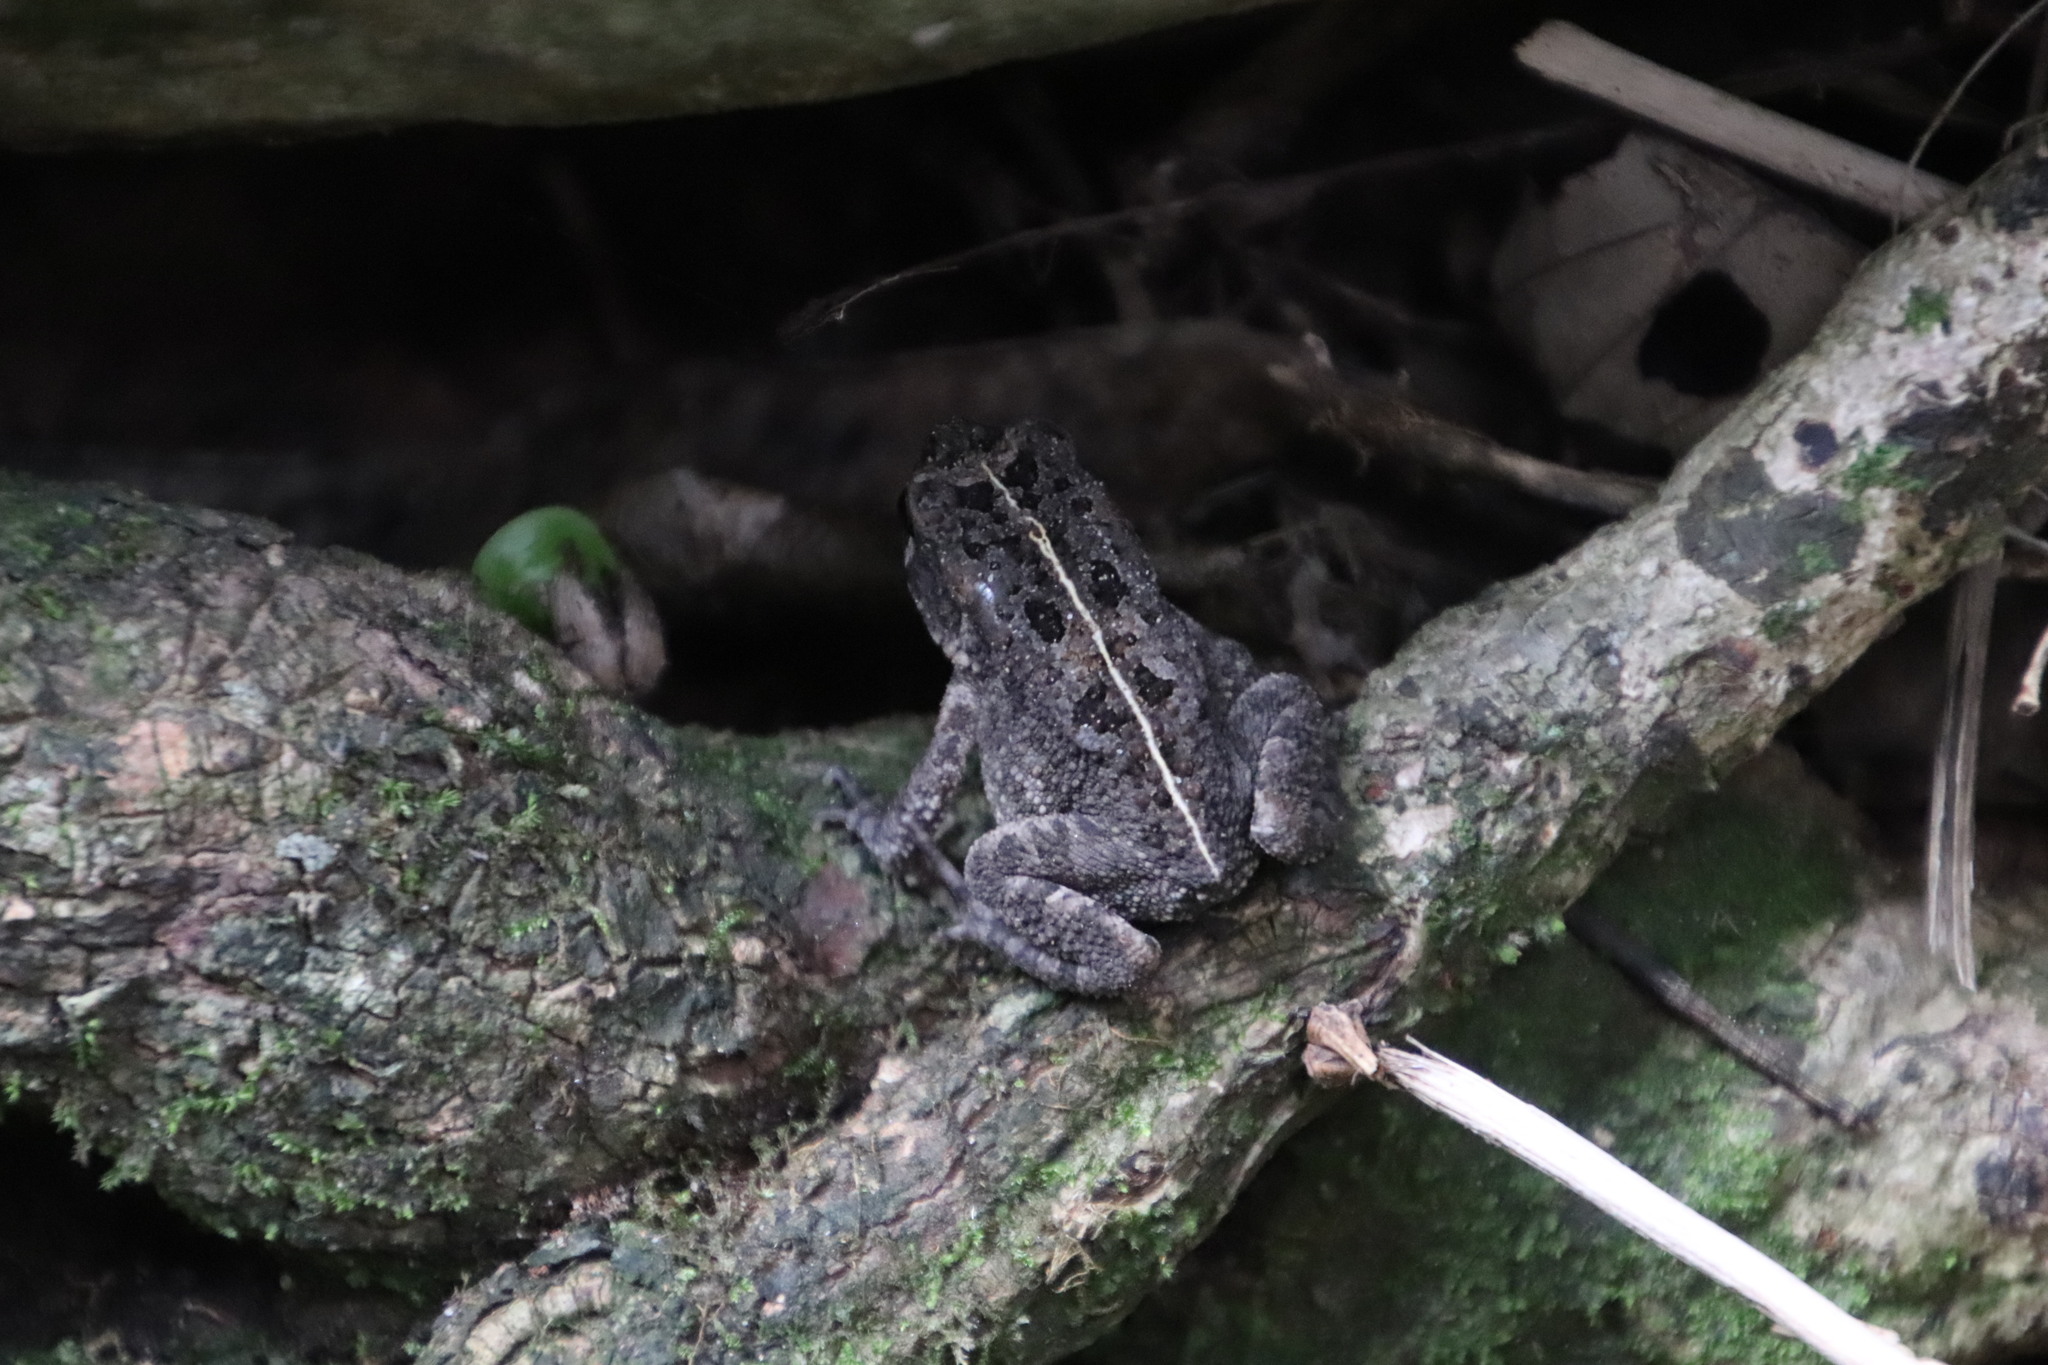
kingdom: Animalia
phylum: Chordata
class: Amphibia
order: Anura
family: Bufonidae
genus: Sclerophrys
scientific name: Sclerophrys gutturalis
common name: African common toad
